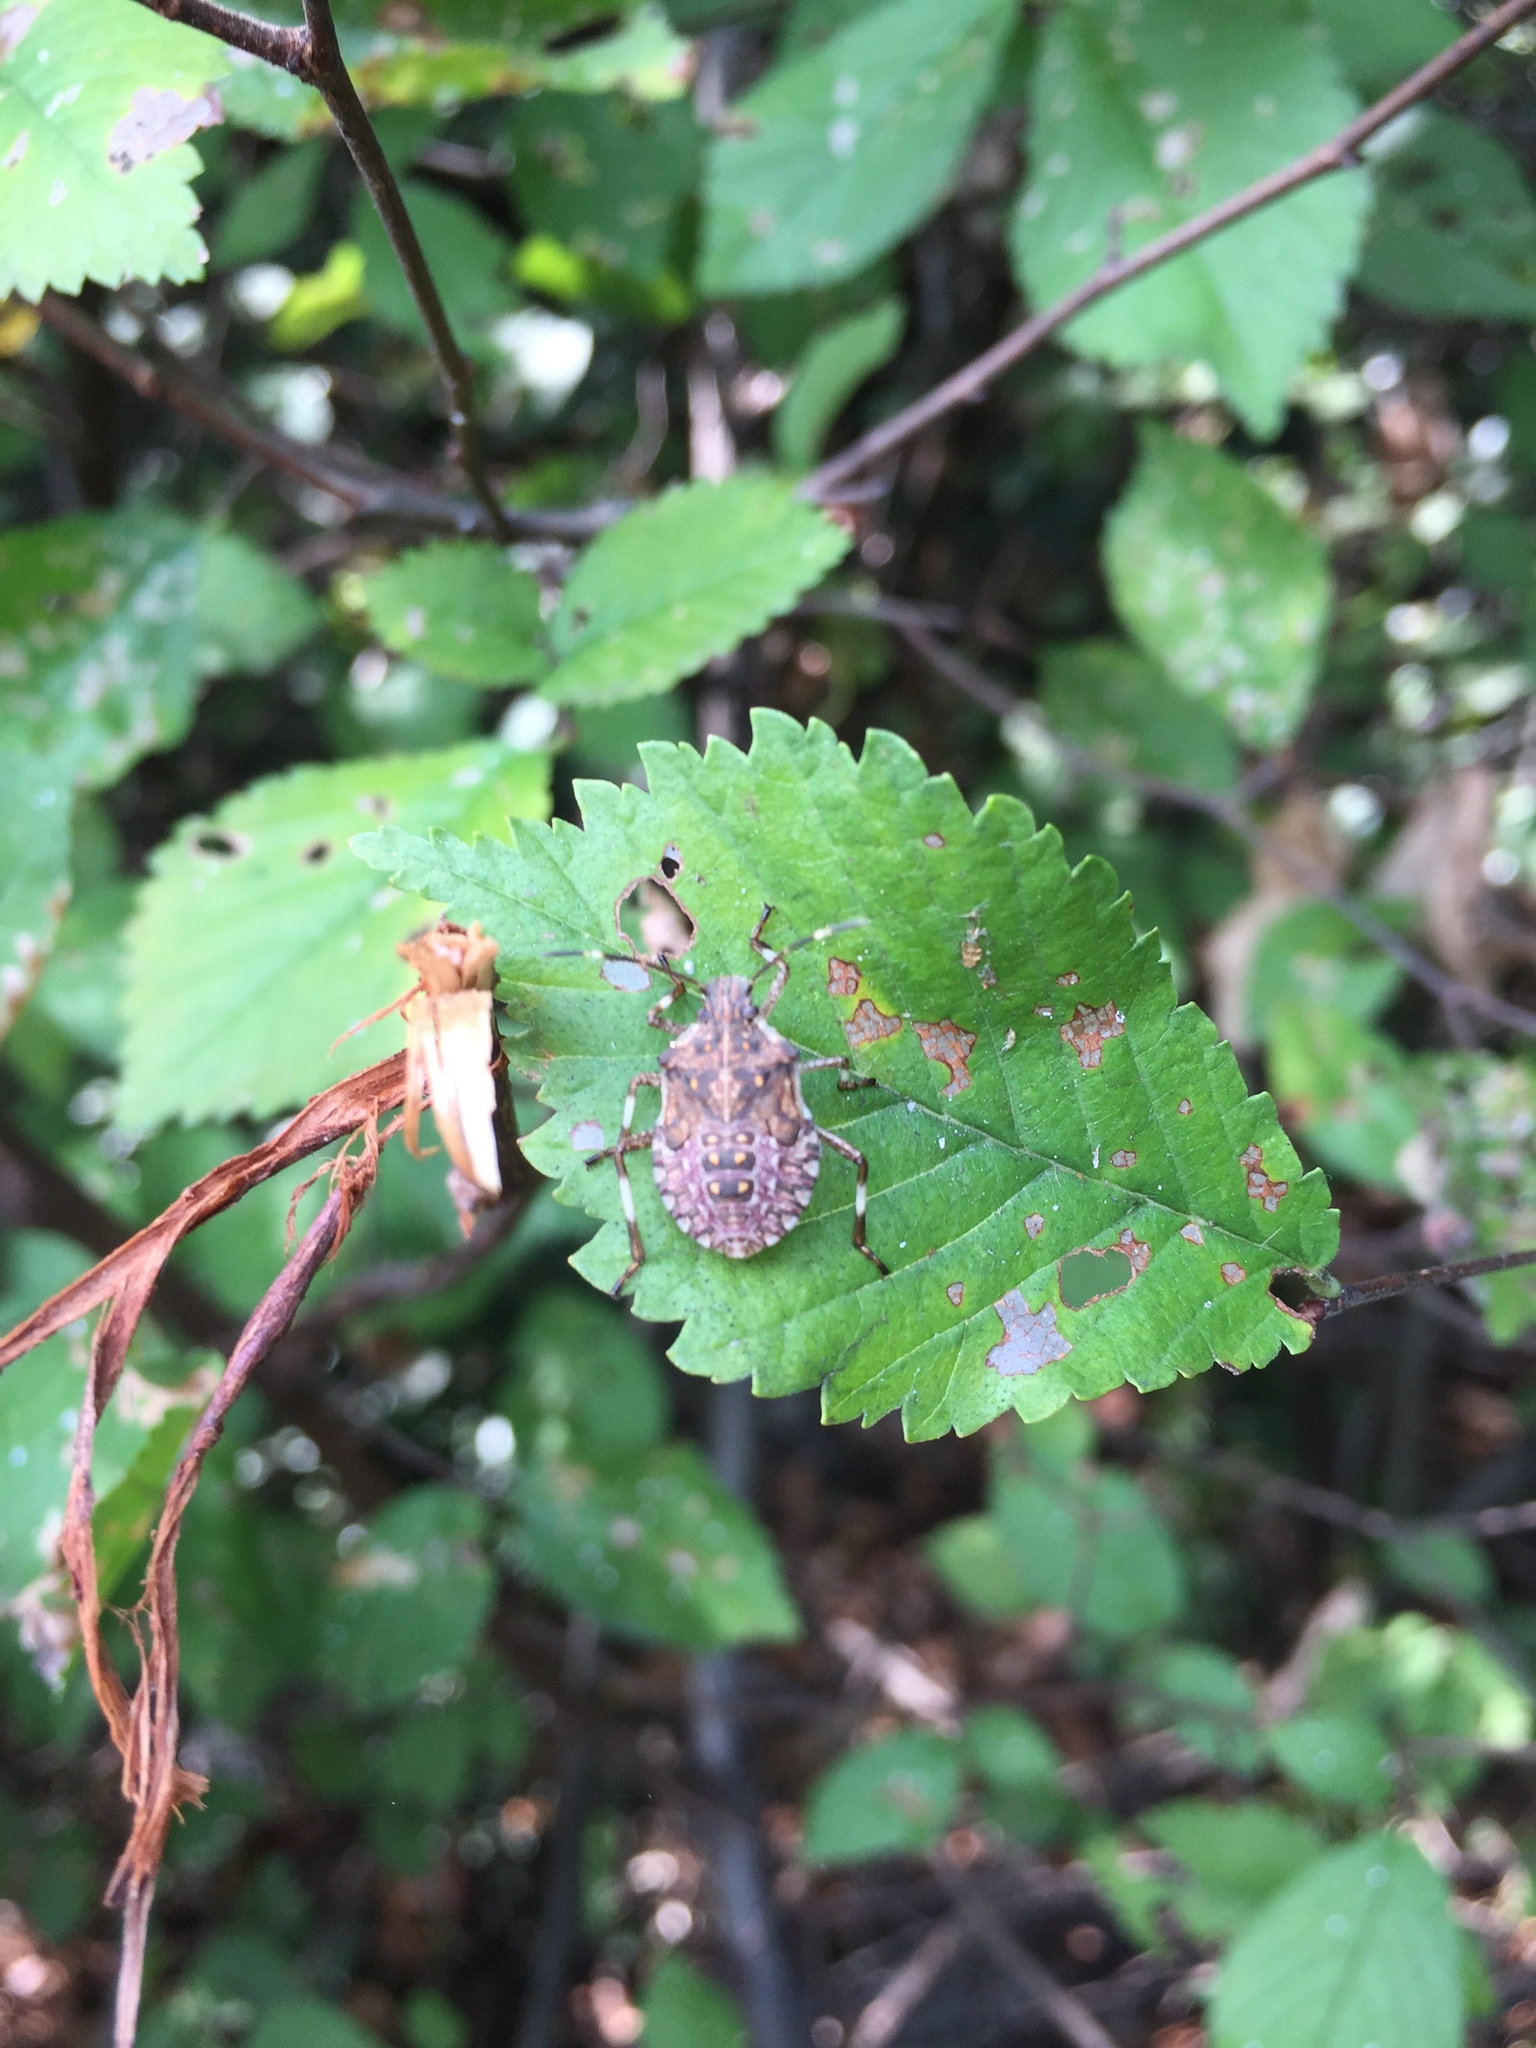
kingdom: Animalia
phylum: Arthropoda
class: Insecta
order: Hemiptera
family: Pentatomidae
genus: Halyomorpha
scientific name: Halyomorpha halys
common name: Brown marmorated stink bug
